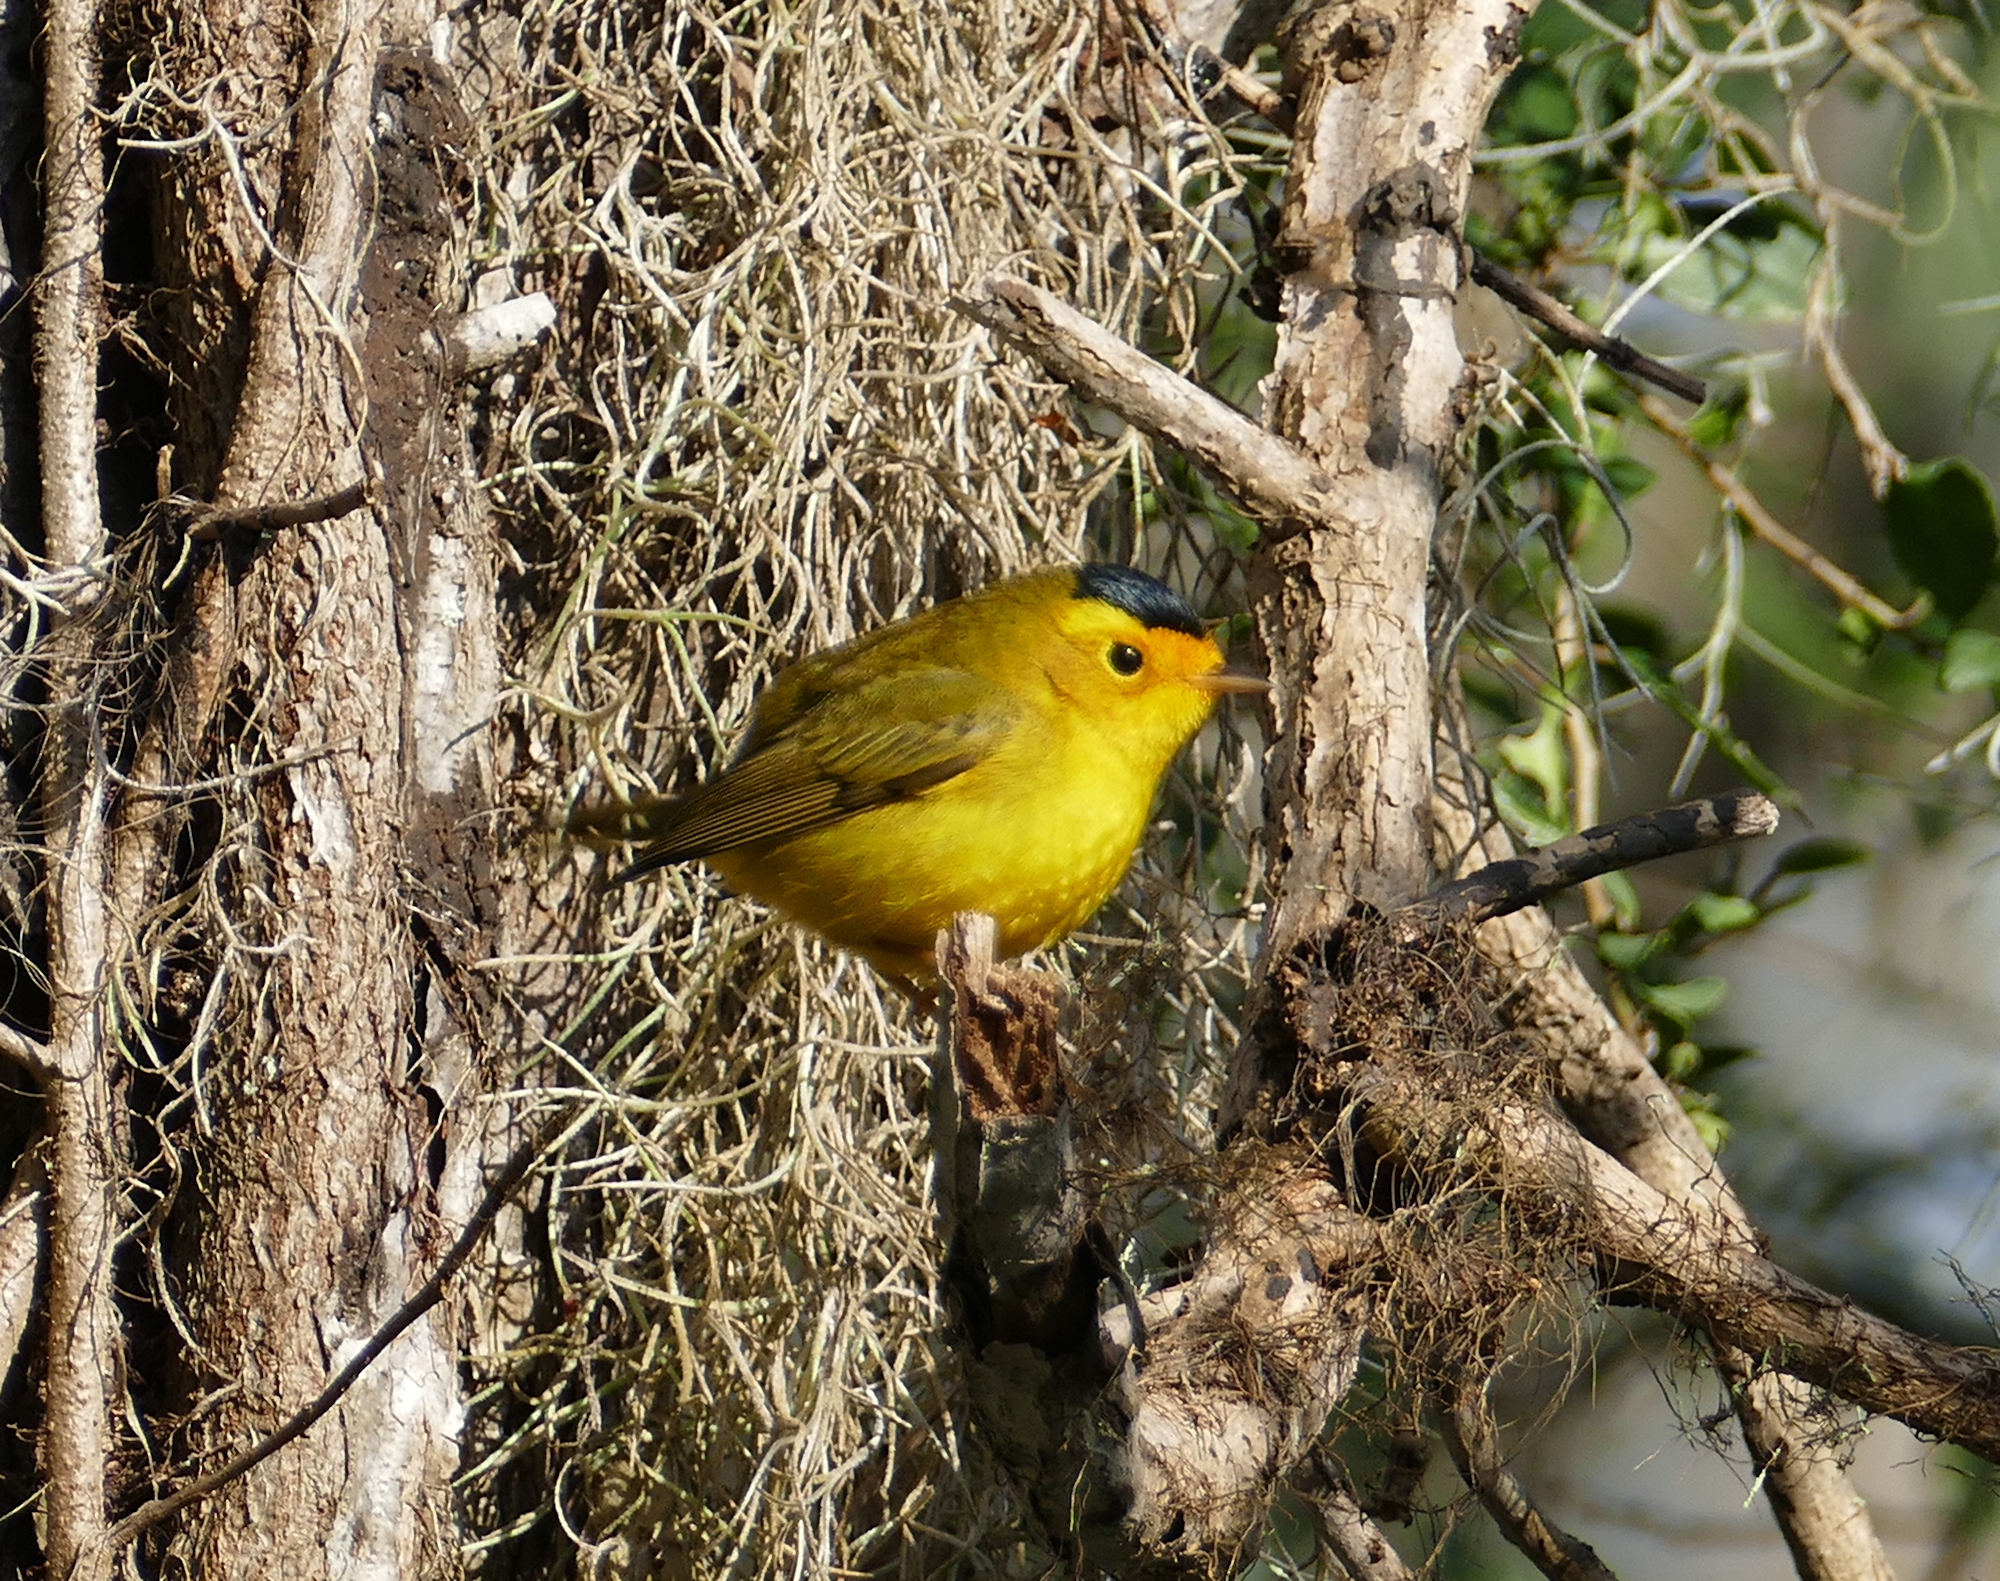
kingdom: Animalia
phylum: Chordata
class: Aves
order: Passeriformes
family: Parulidae
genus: Cardellina
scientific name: Cardellina pusilla
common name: Wilson's warbler
